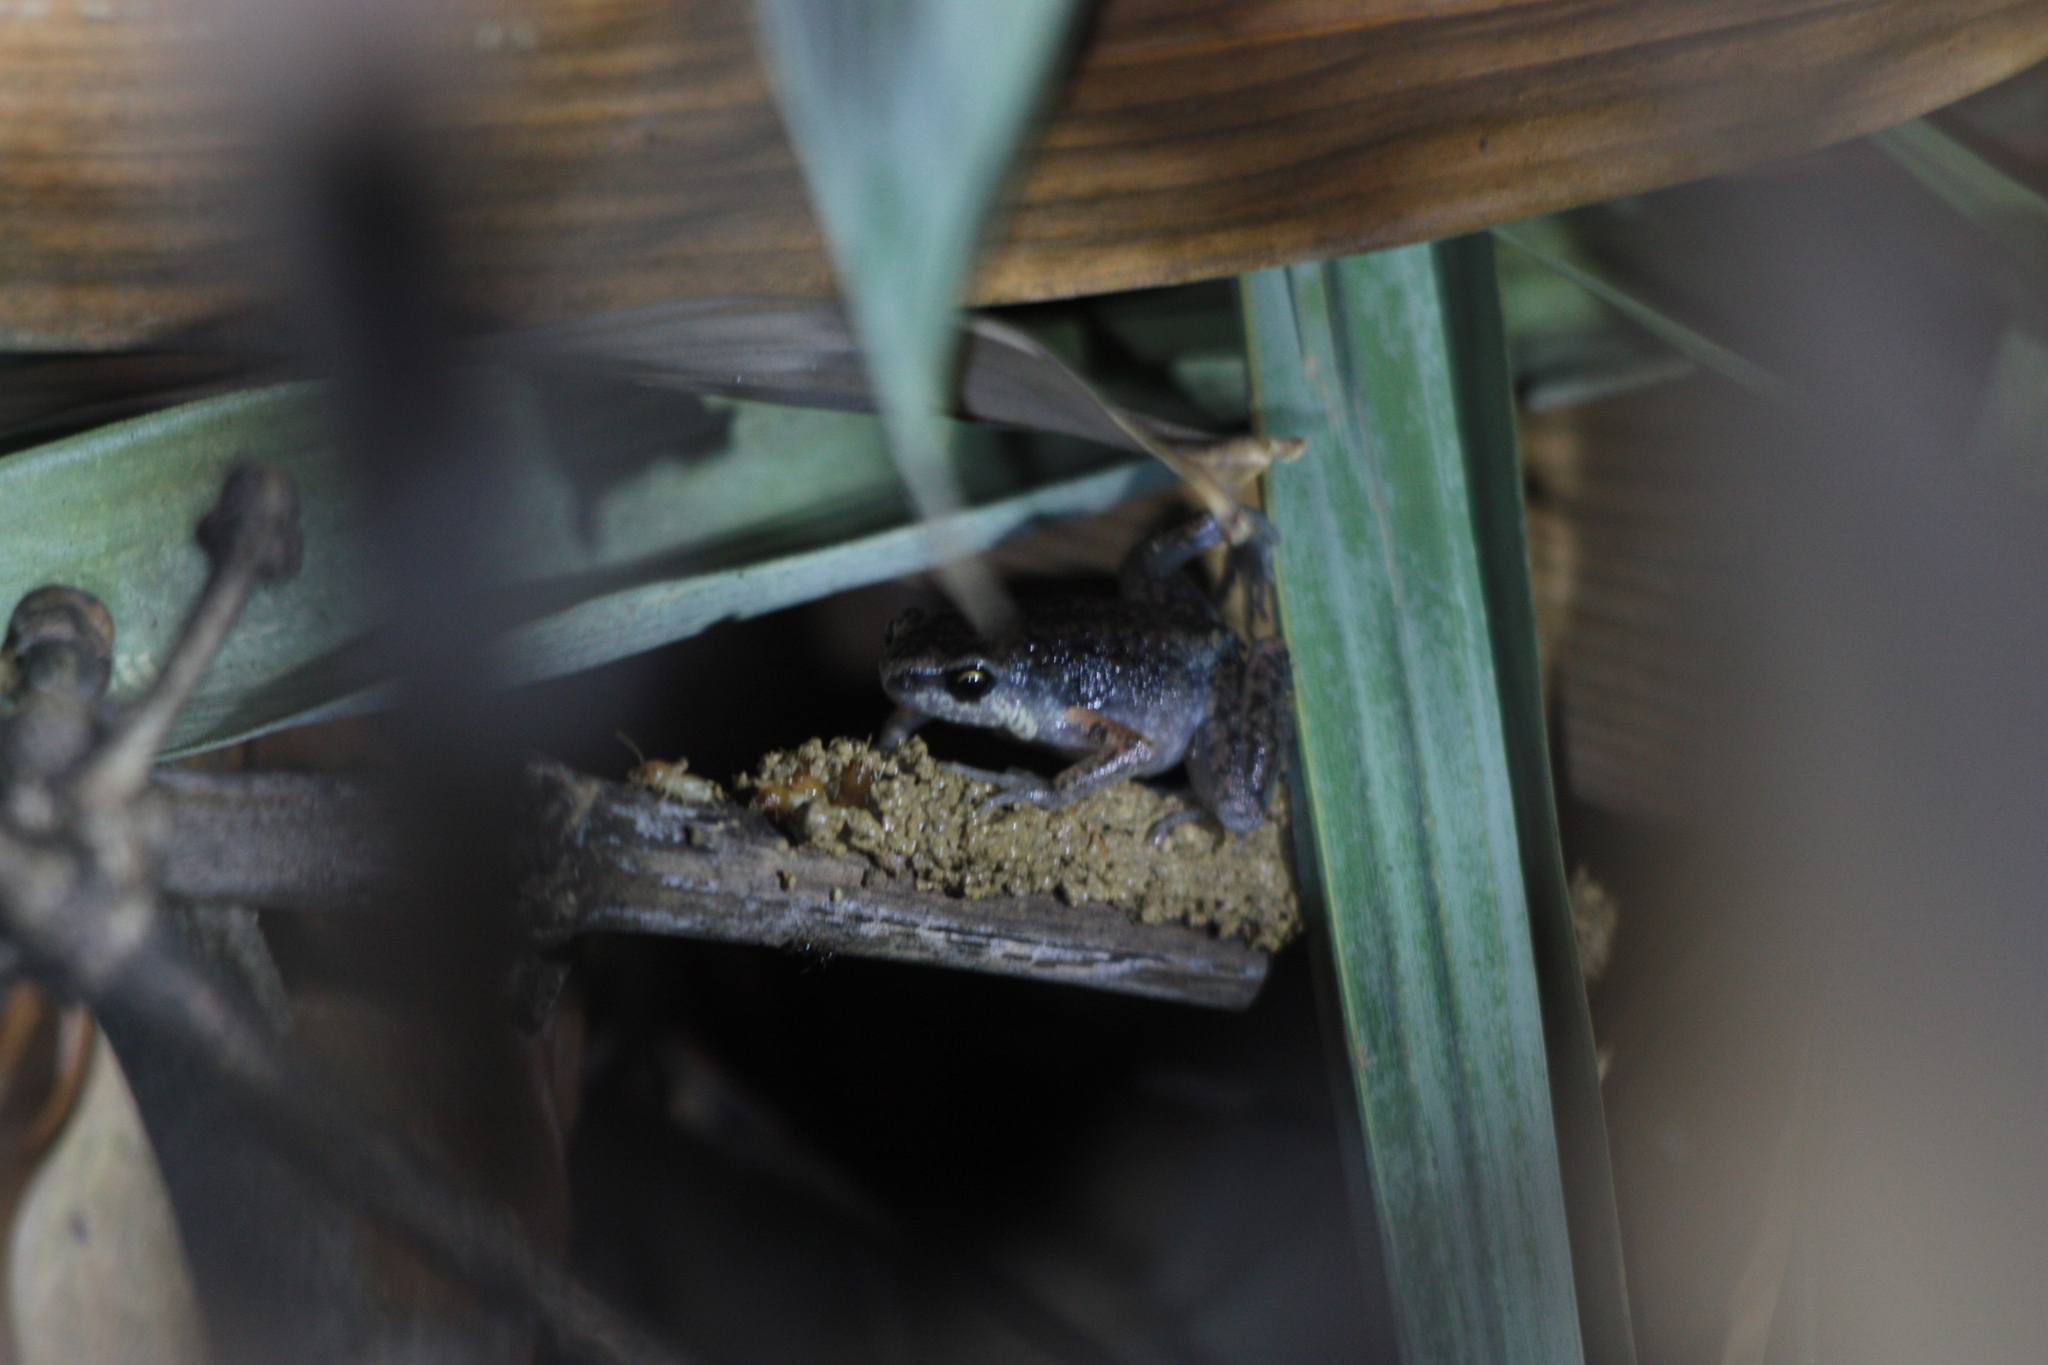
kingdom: Animalia
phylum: Chordata
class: Amphibia
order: Anura
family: Microhylidae
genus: Micryletta
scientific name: Micryletta steinegeri
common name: Stejneger's paddy frog
